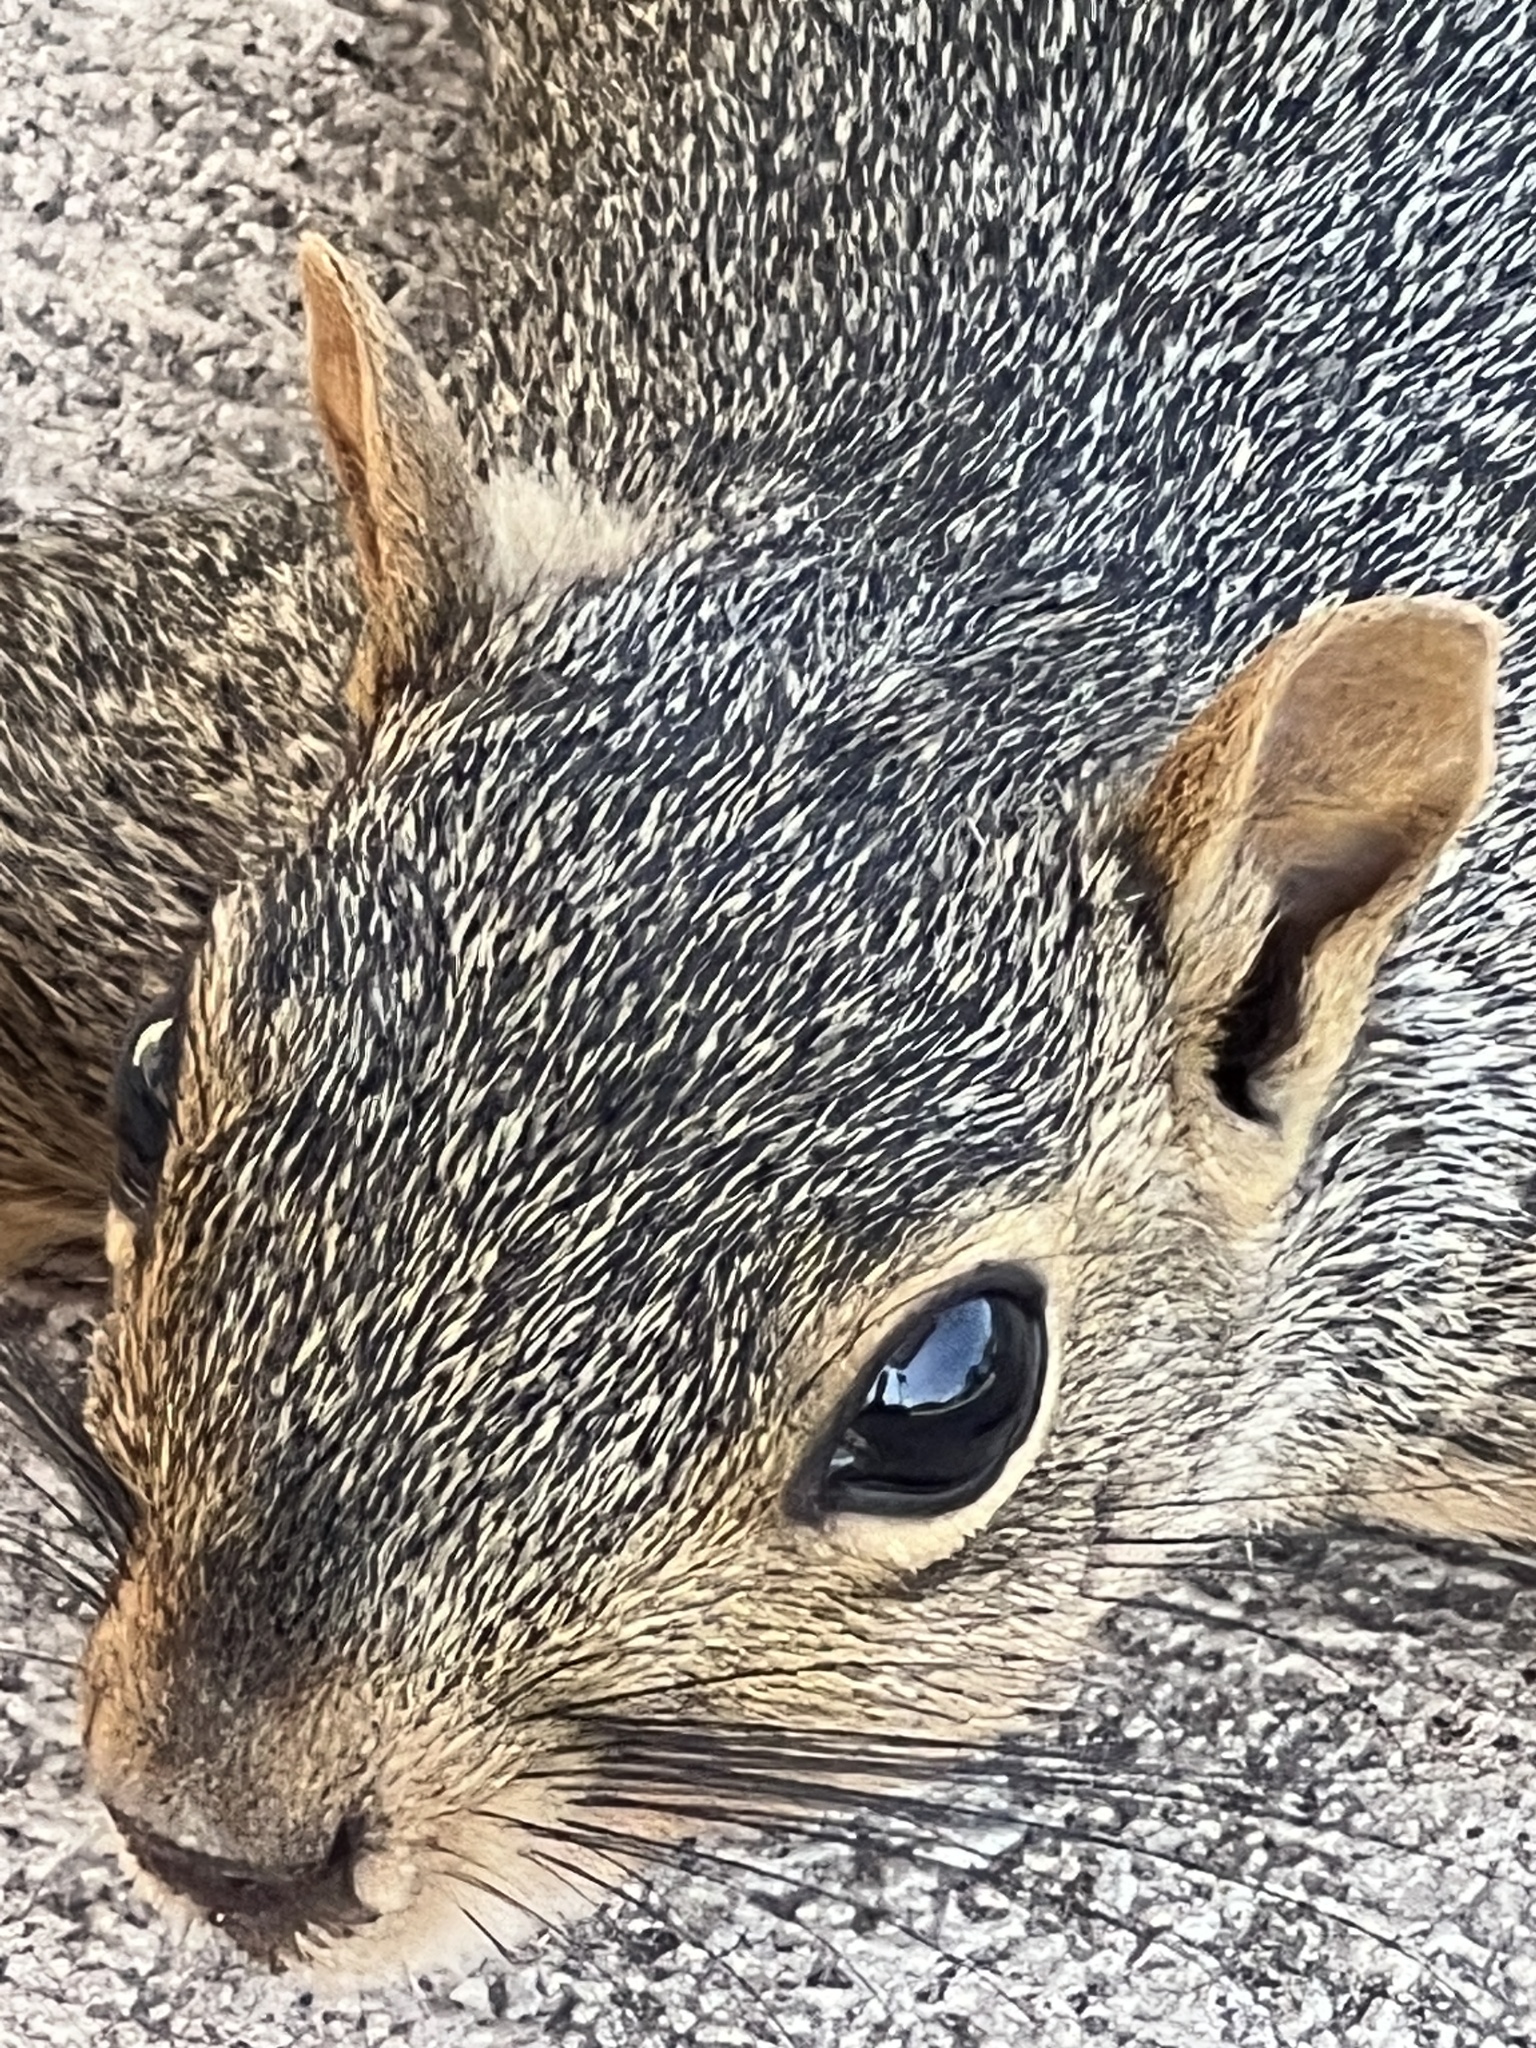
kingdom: Animalia
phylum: Chordata
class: Mammalia
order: Rodentia
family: Sciuridae
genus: Sciurus
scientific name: Sciurus niger
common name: Fox squirrel
